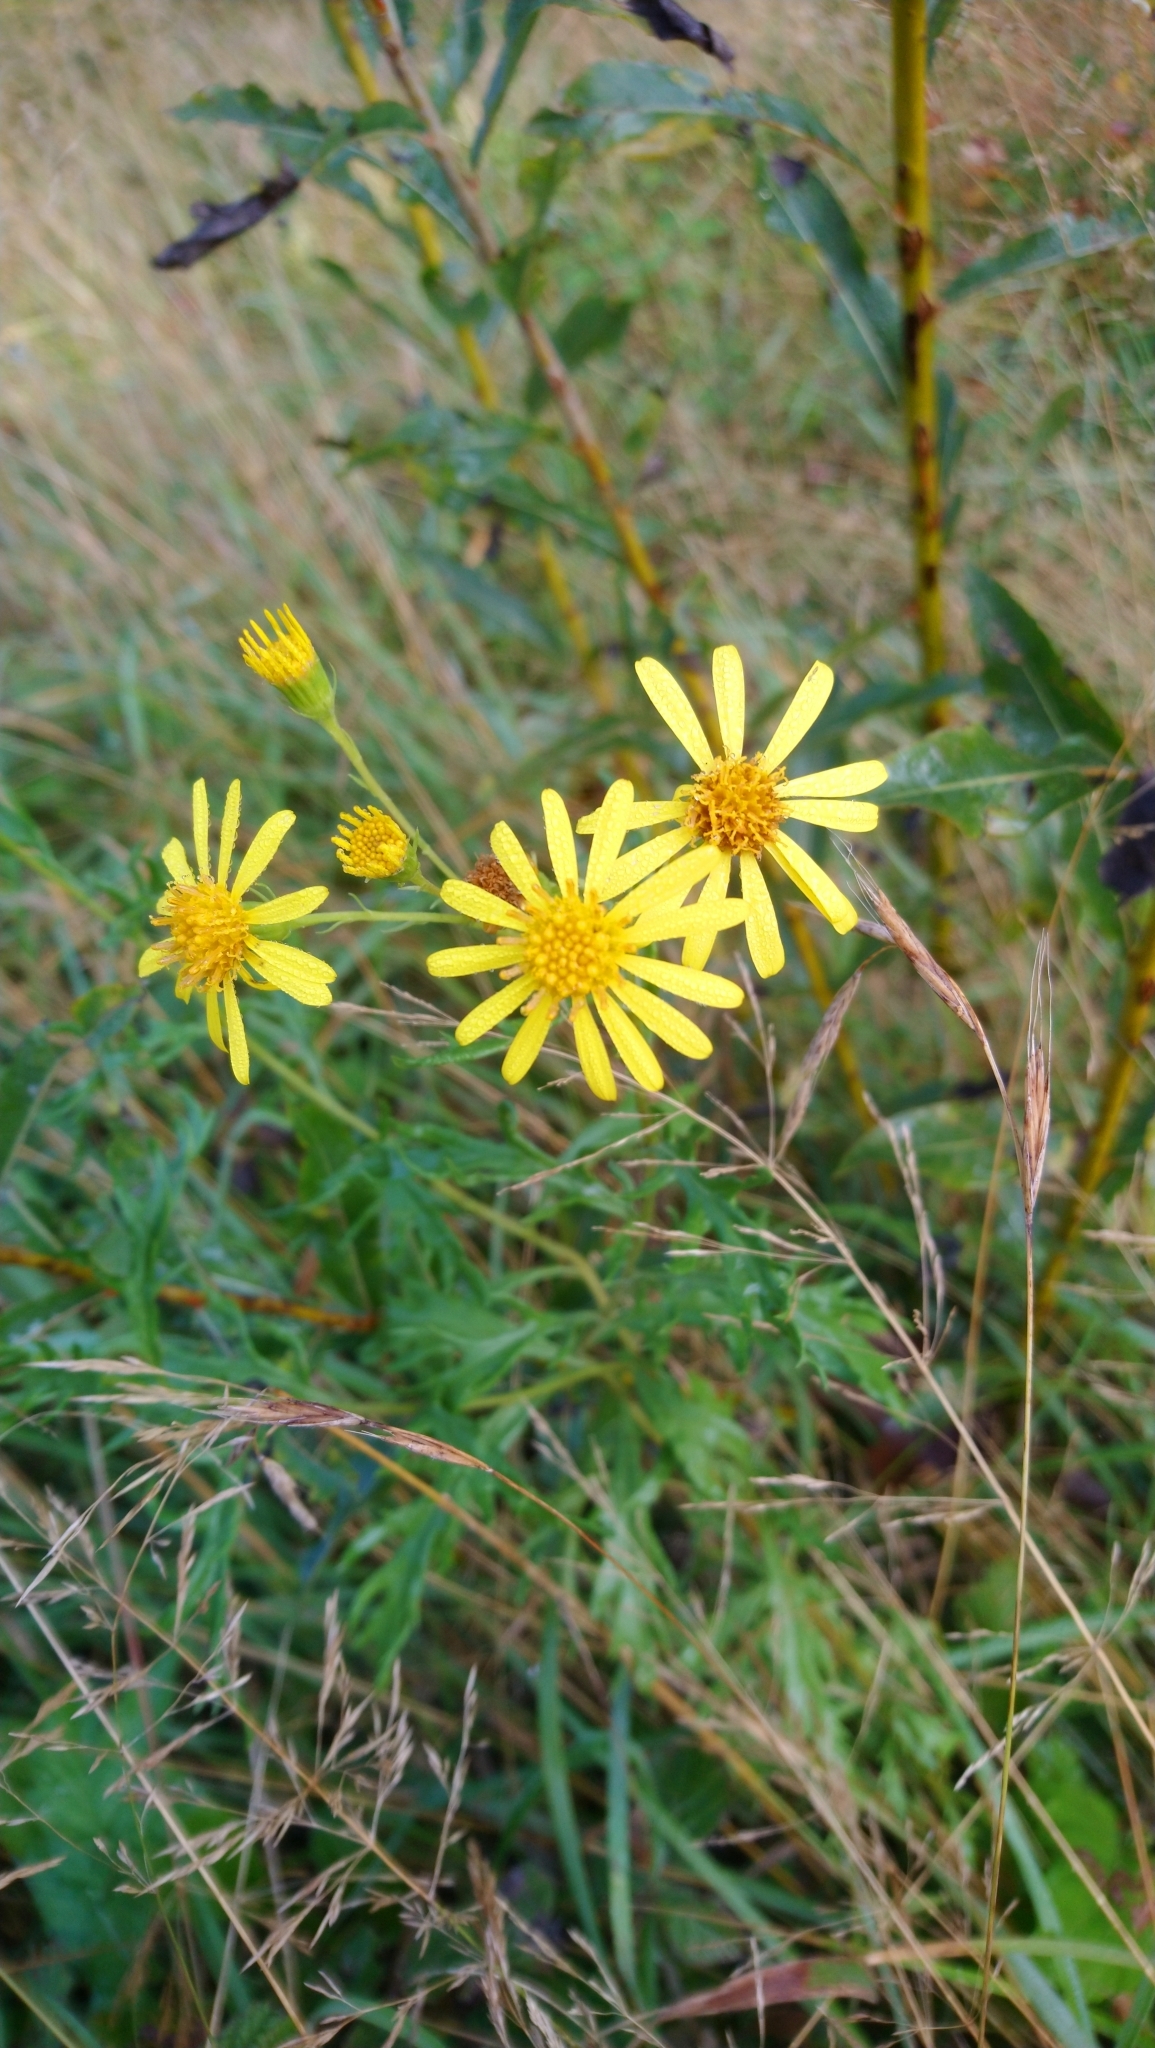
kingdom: Plantae
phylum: Tracheophyta
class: Magnoliopsida
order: Asterales
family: Asteraceae
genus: Jacobaea
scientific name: Jacobaea vulgaris
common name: Stinking willie
